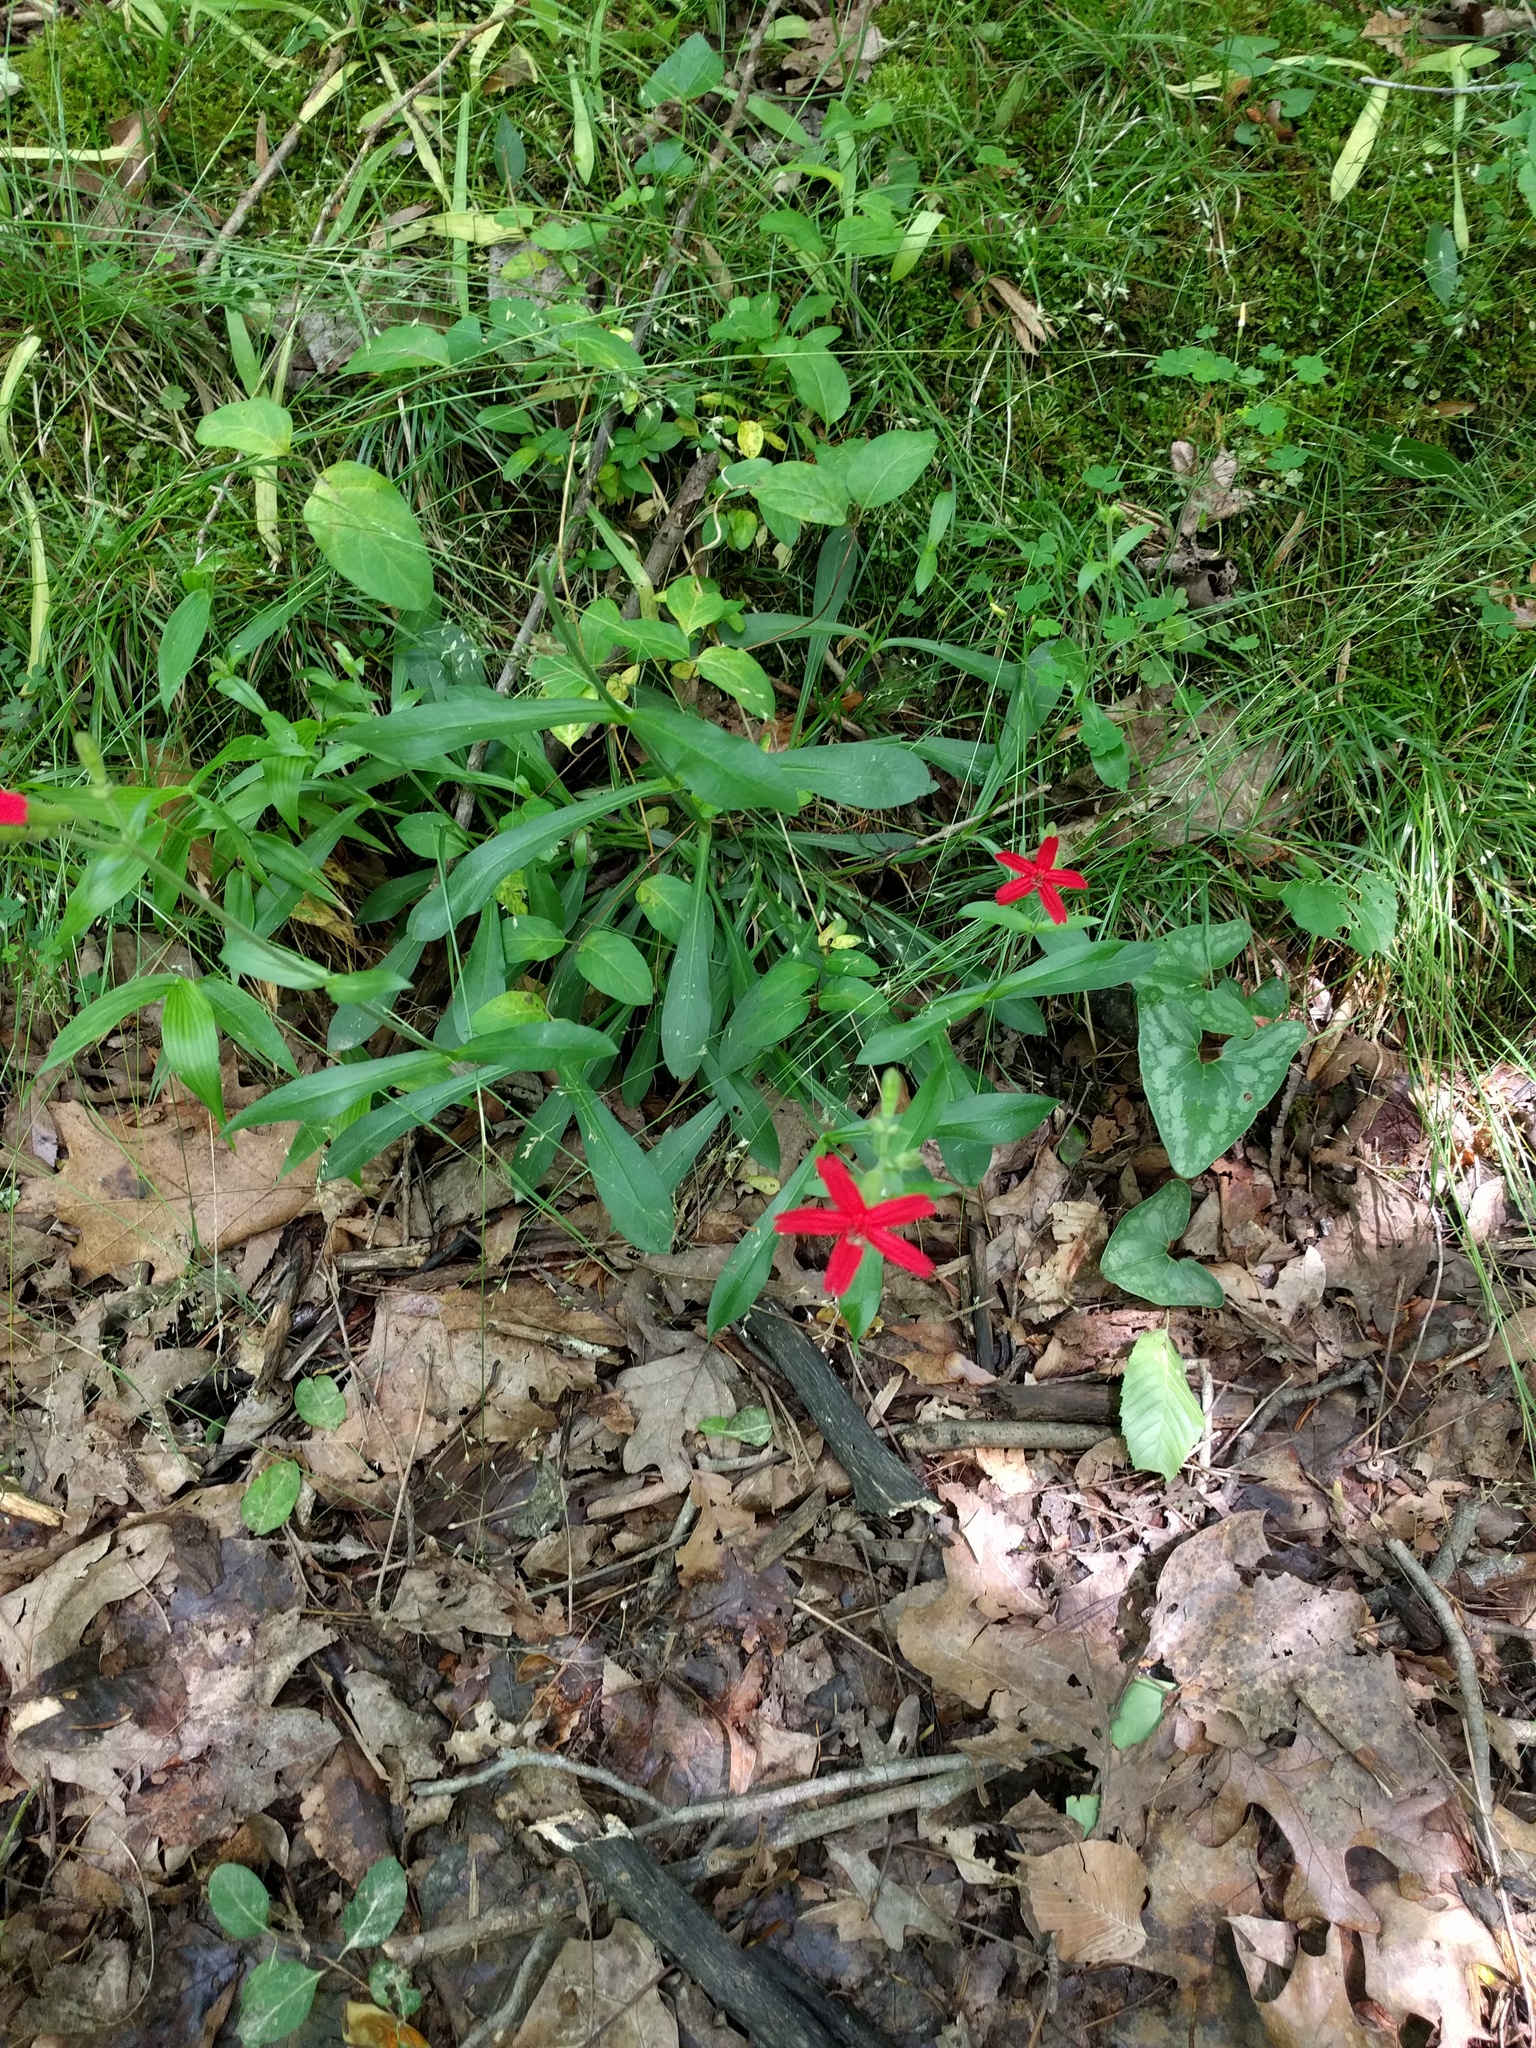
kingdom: Plantae
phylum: Tracheophyta
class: Magnoliopsida
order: Caryophyllales
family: Caryophyllaceae
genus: Silene
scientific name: Silene virginica
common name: Fire-pink
